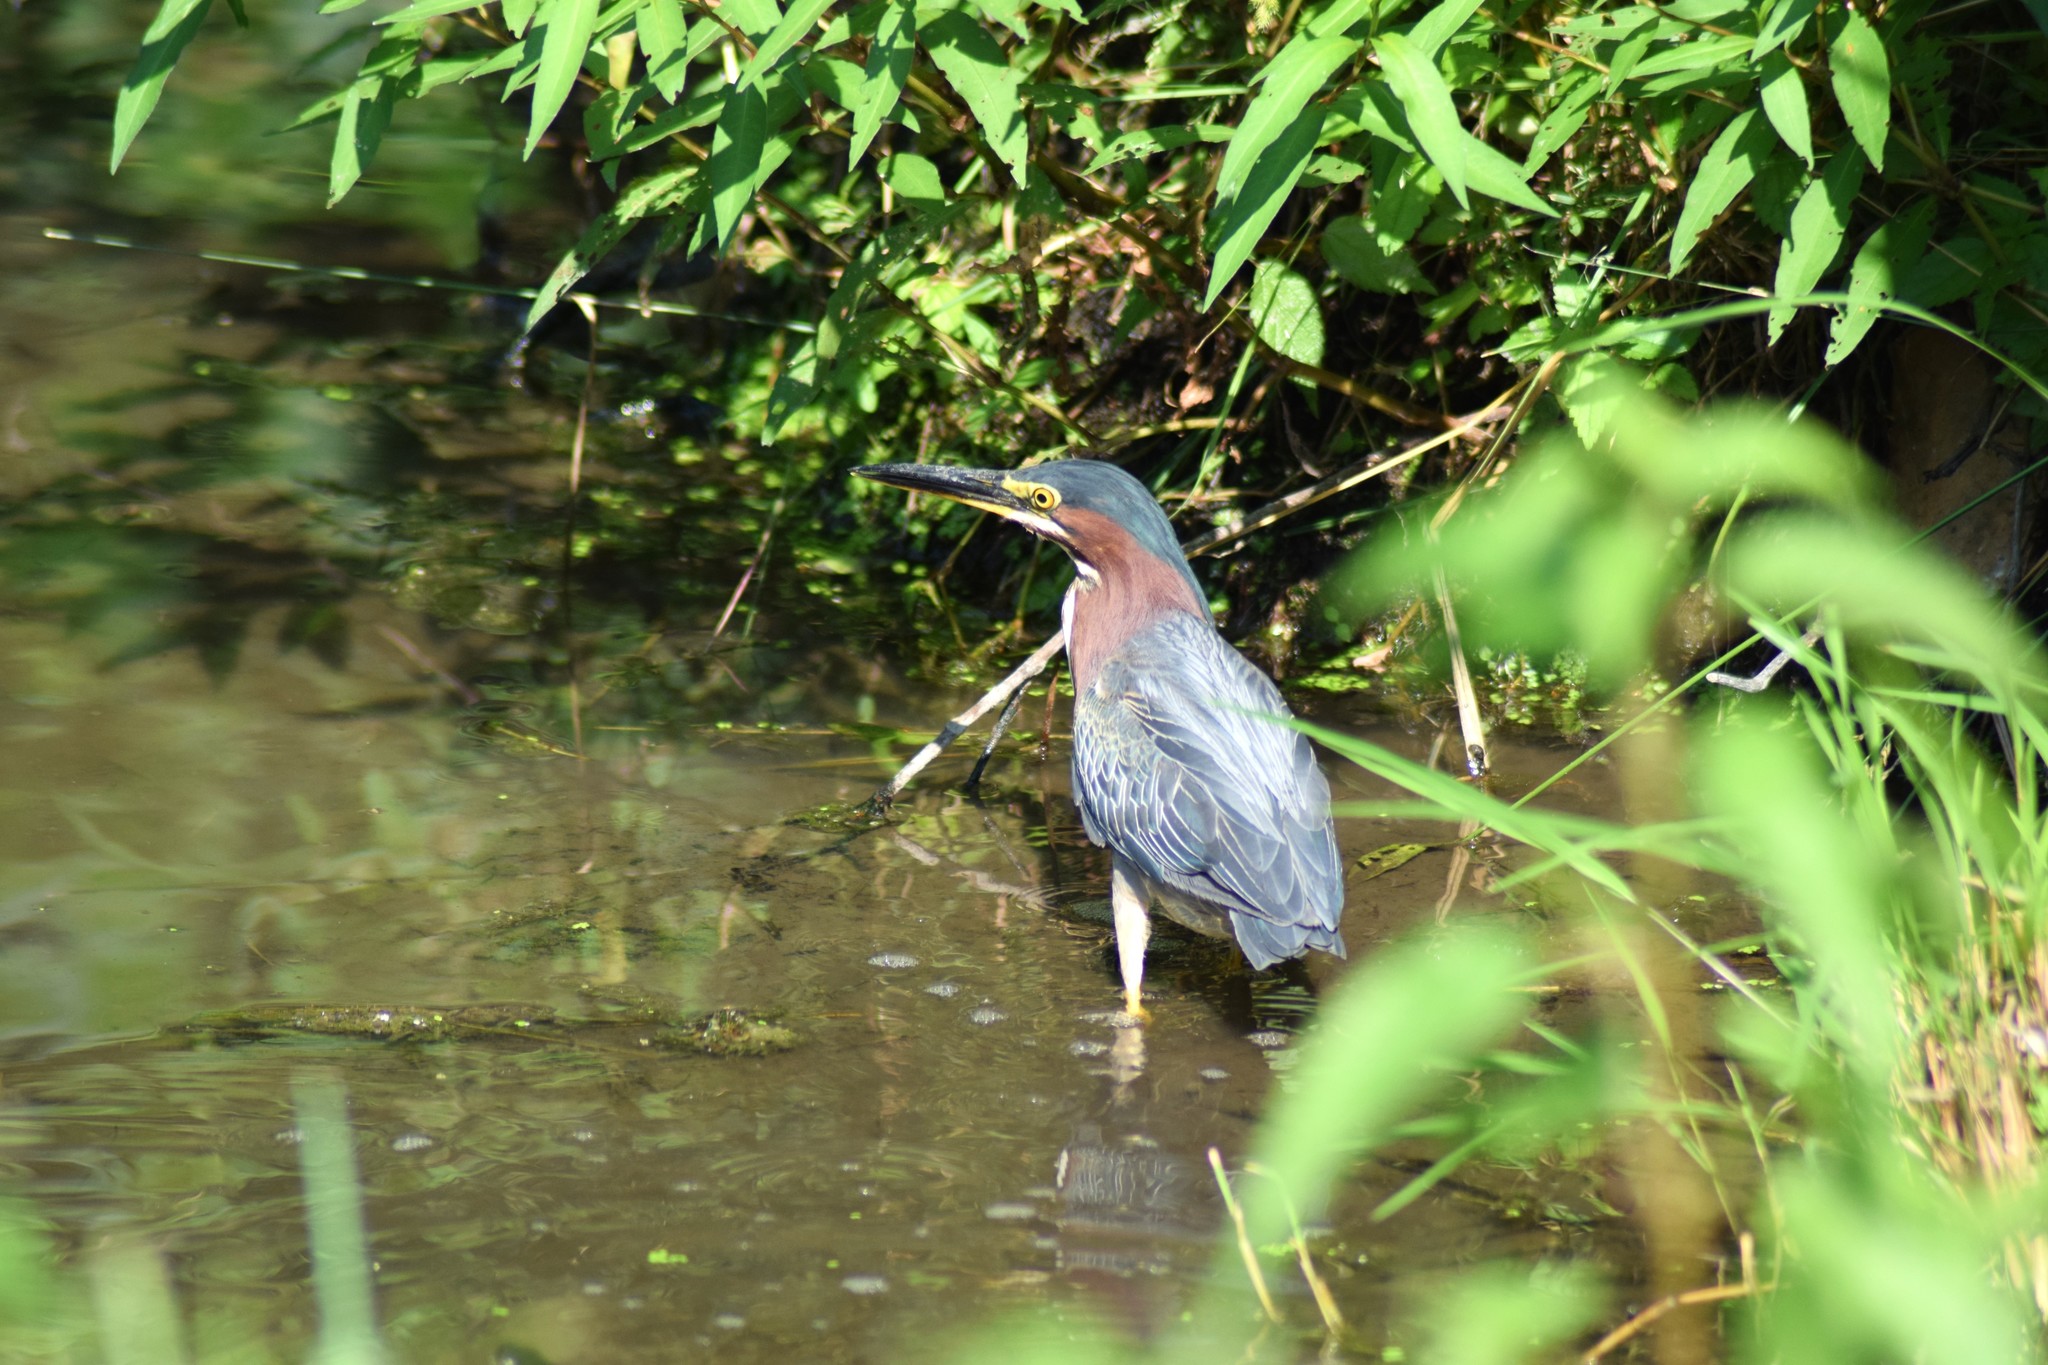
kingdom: Animalia
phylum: Chordata
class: Aves
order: Pelecaniformes
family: Ardeidae
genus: Butorides
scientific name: Butorides virescens
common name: Green heron
